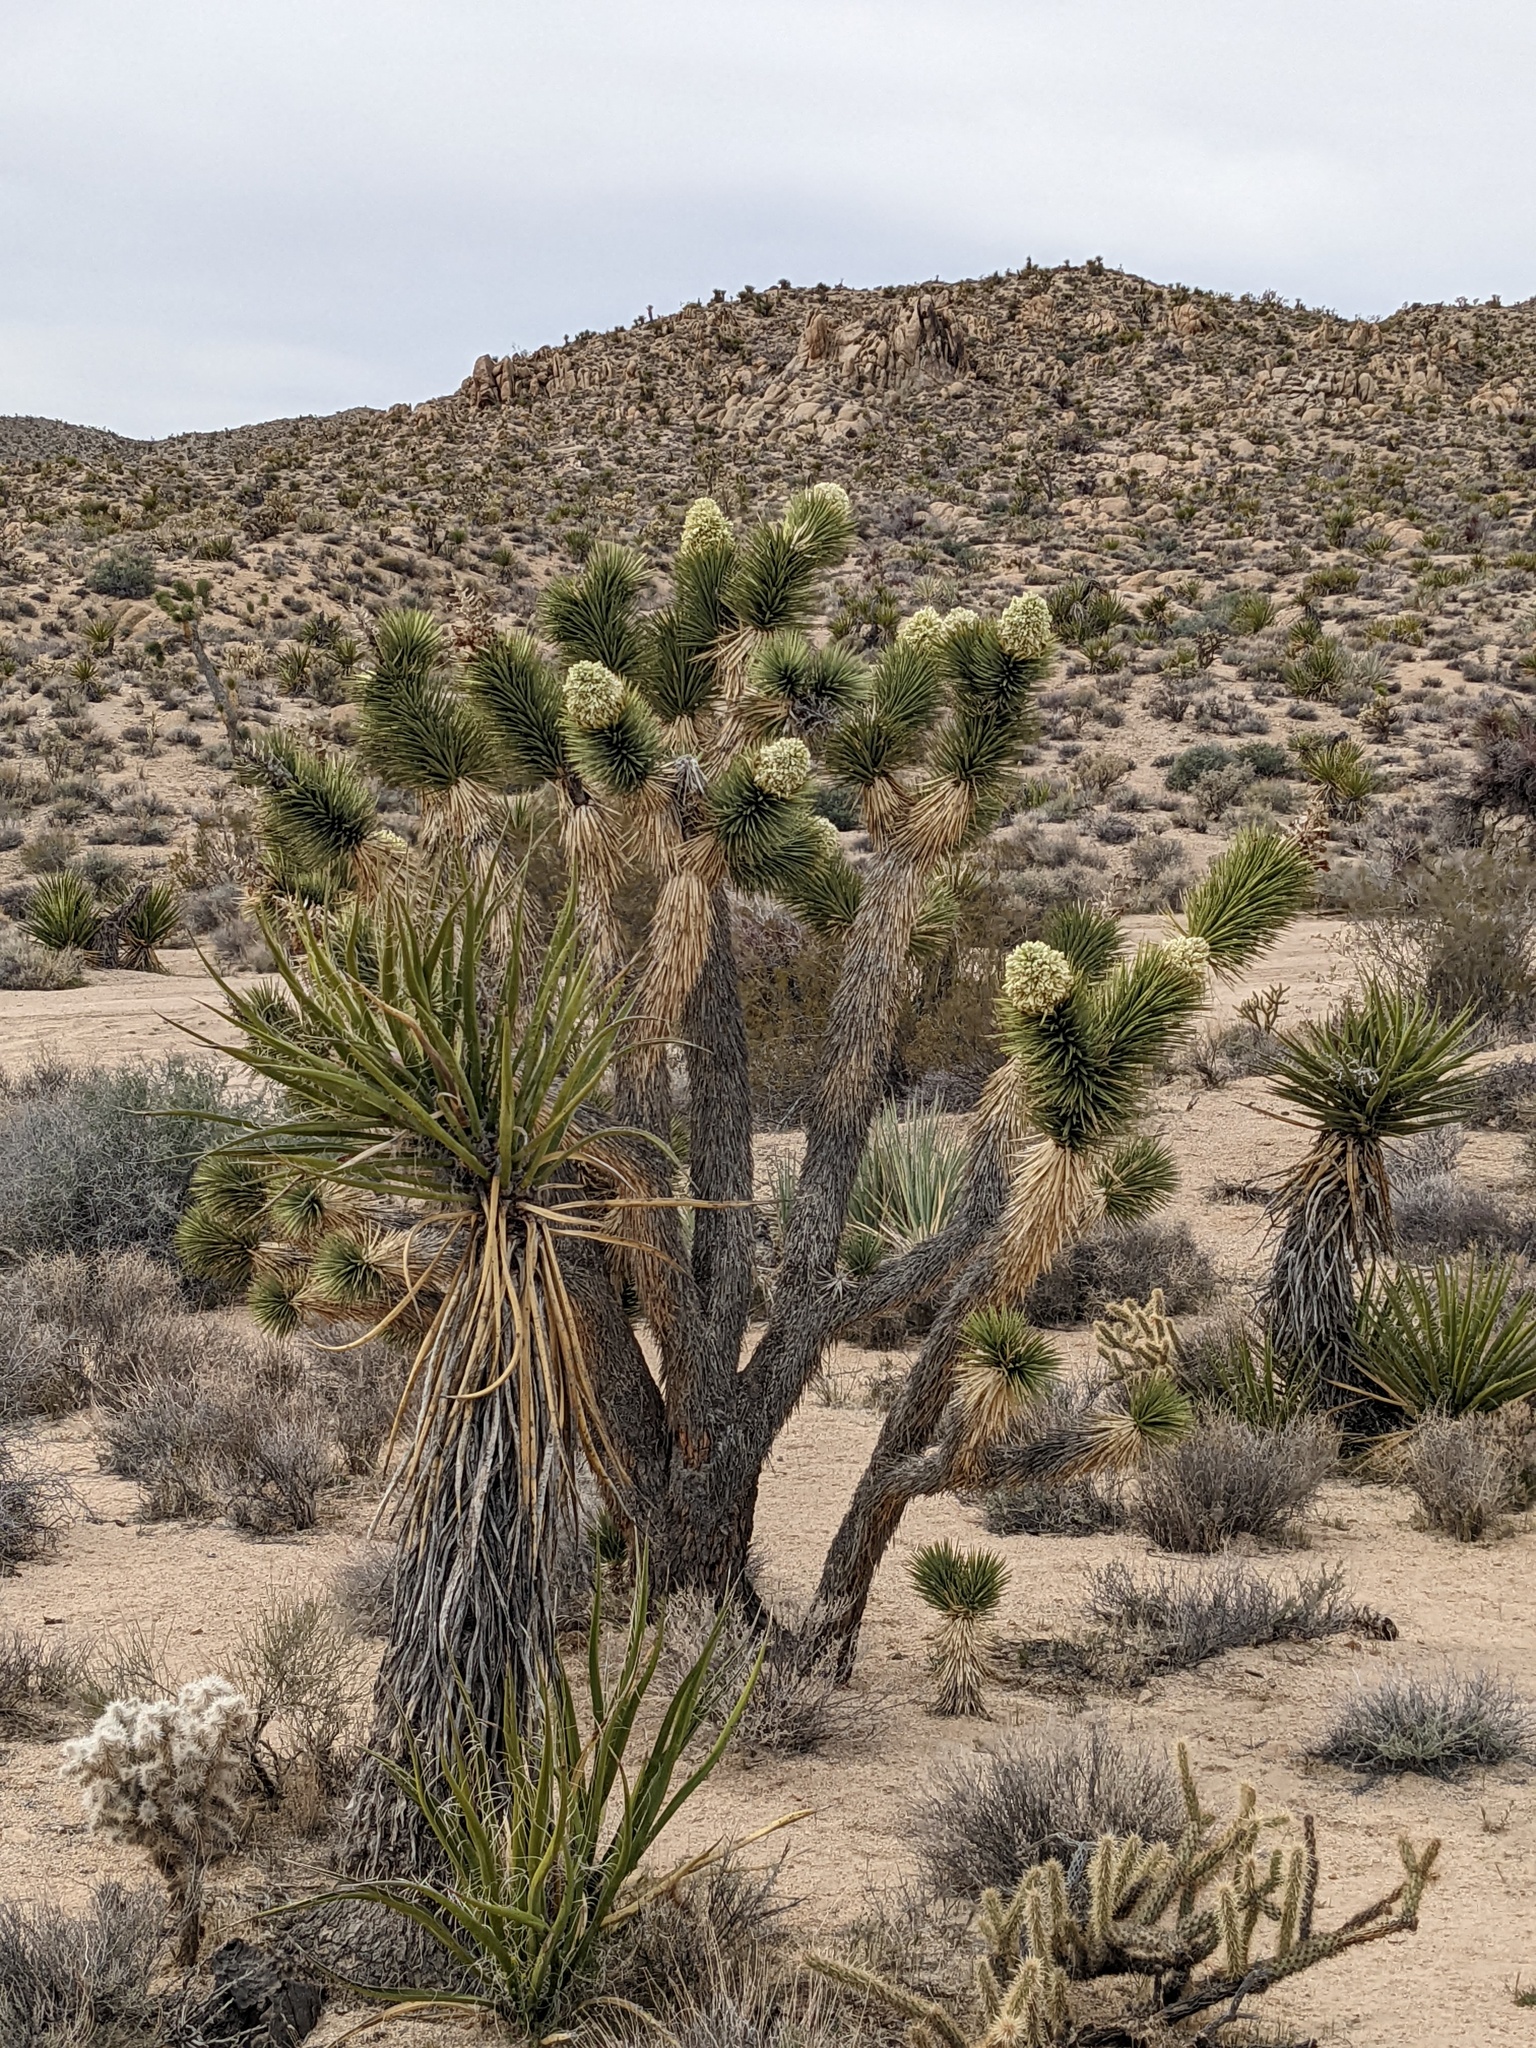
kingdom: Plantae
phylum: Tracheophyta
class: Liliopsida
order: Asparagales
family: Asparagaceae
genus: Yucca
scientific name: Yucca brevifolia
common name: Joshua tree
